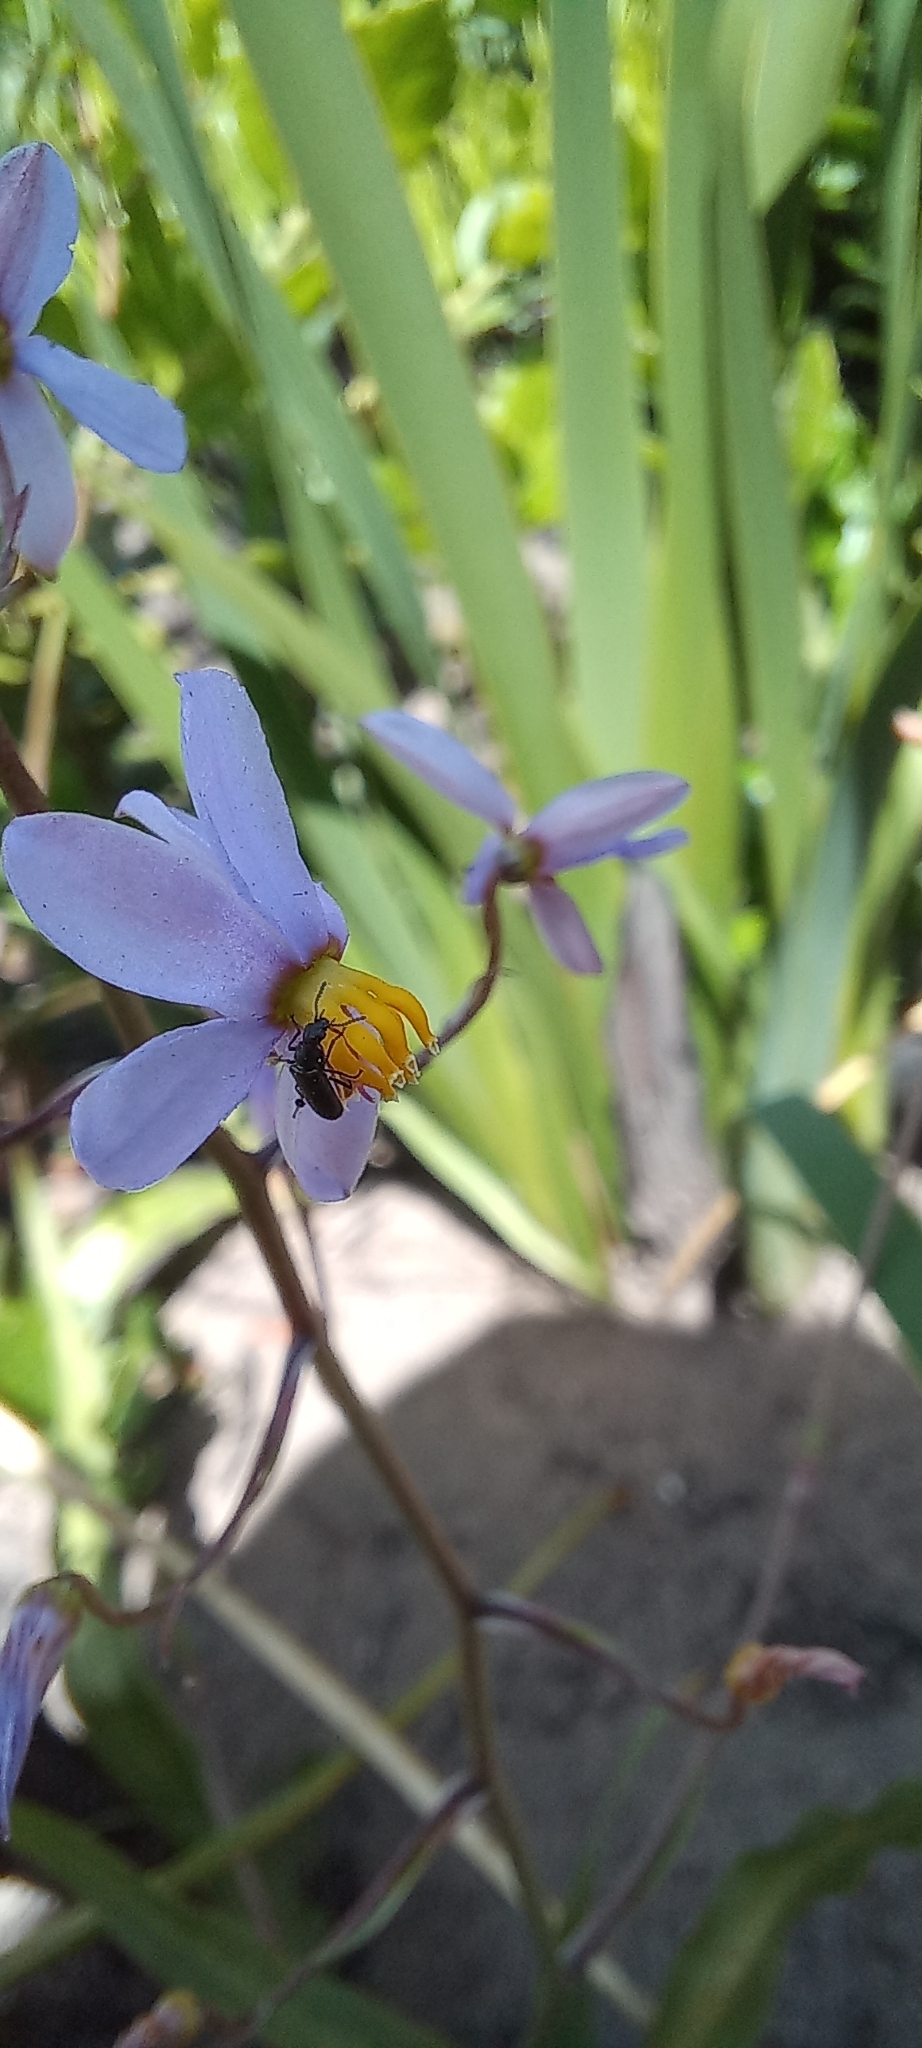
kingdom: Plantae
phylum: Tracheophyta
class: Liliopsida
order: Asparagales
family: Tecophilaeaceae
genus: Cyanella
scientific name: Cyanella hyacinthoides
